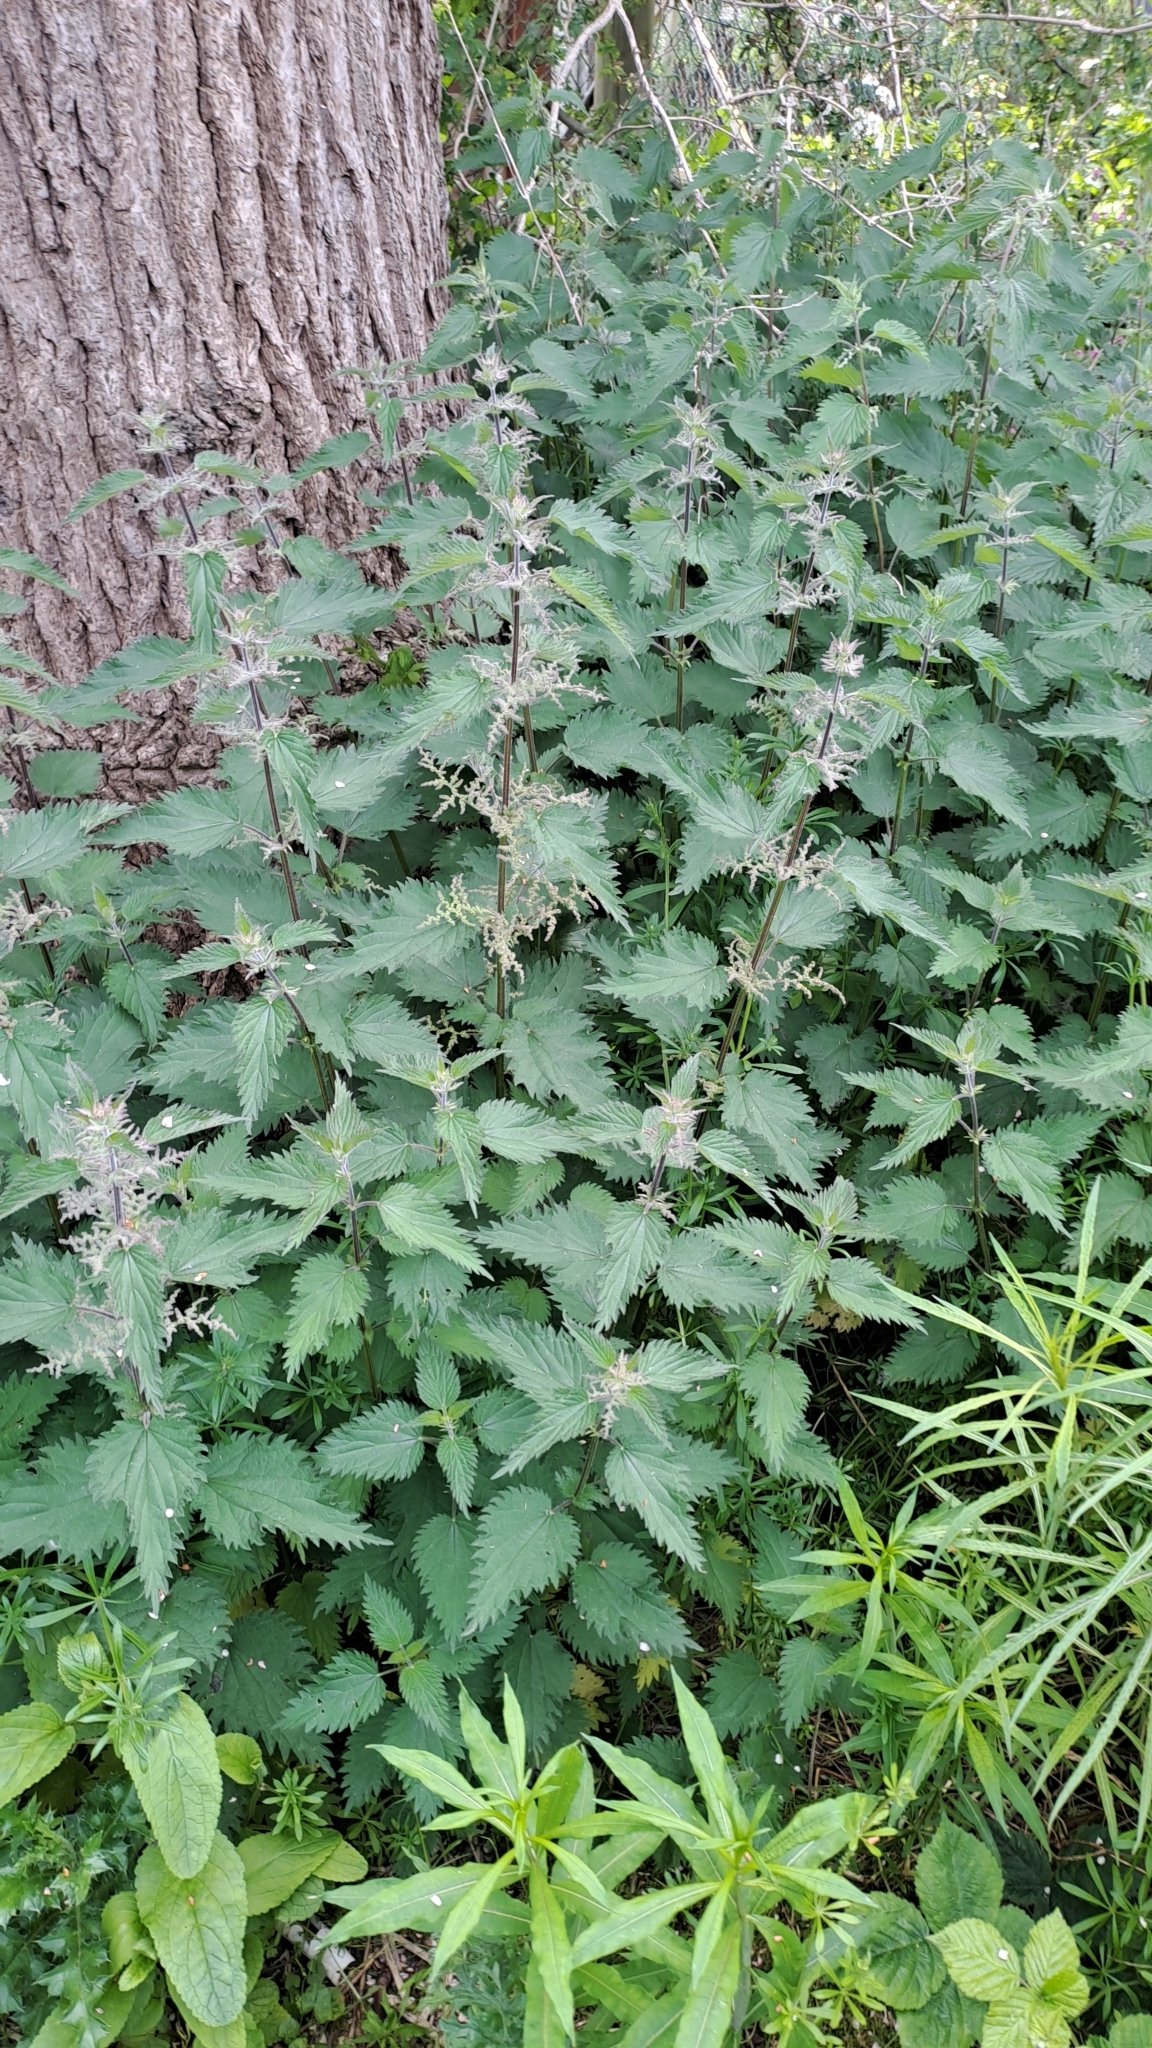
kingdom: Plantae
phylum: Tracheophyta
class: Magnoliopsida
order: Rosales
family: Urticaceae
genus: Urtica
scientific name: Urtica dioica
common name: Common nettle
